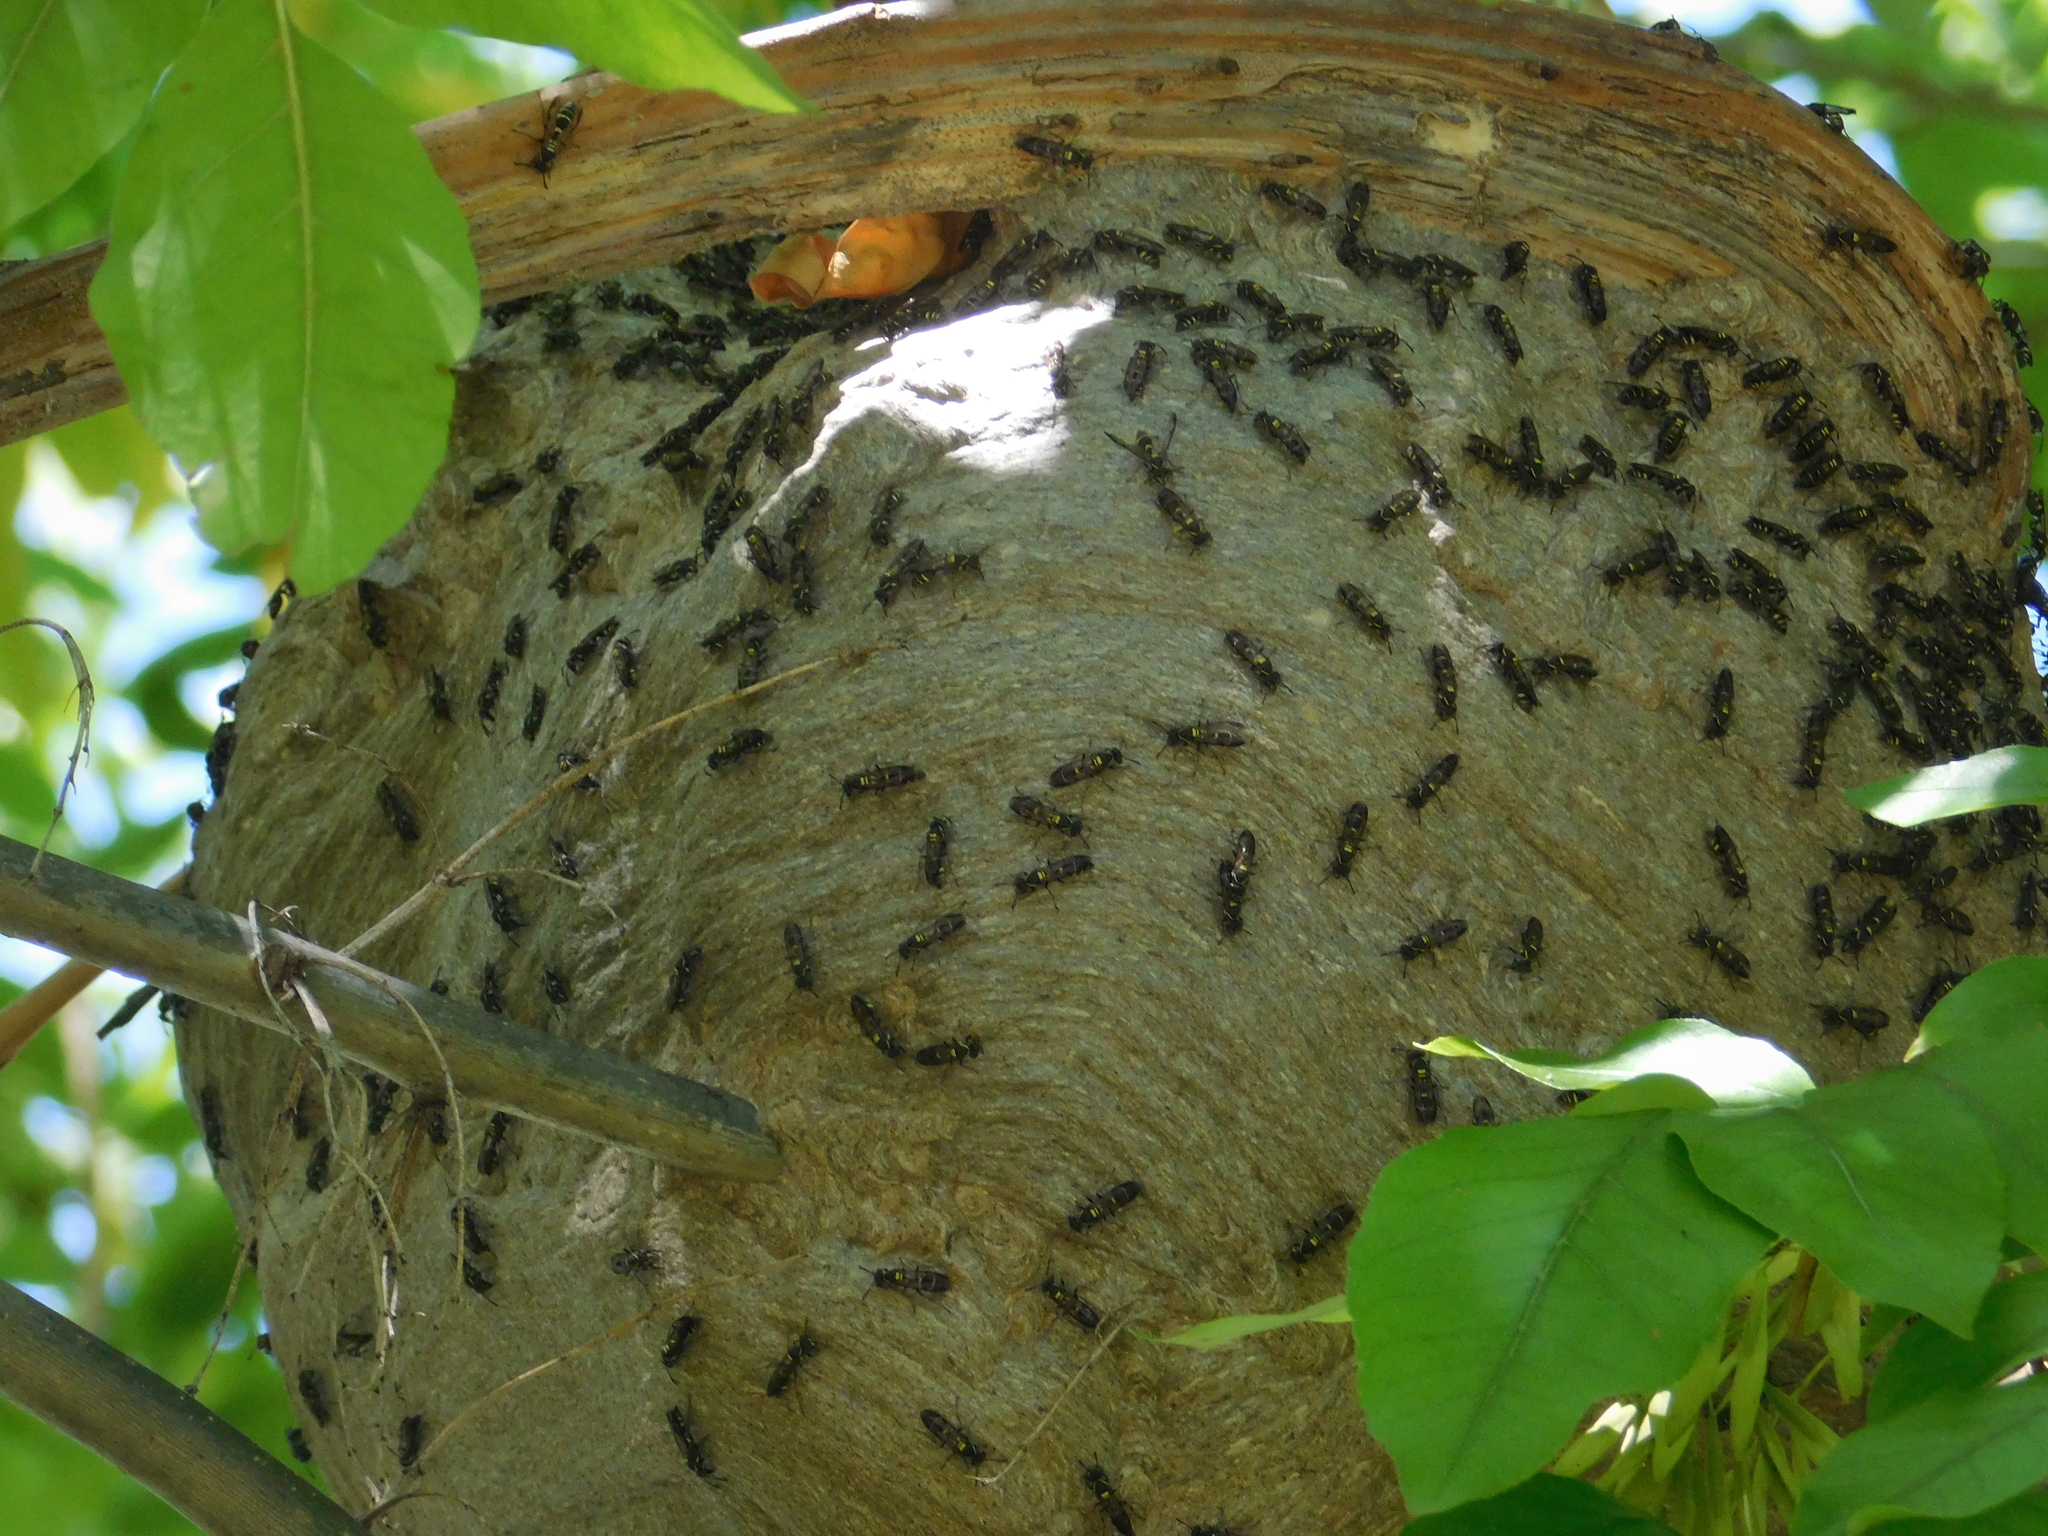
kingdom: Animalia
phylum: Arthropoda
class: Insecta
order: Hymenoptera
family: Eumenidae
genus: Polybia
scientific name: Polybia occidentalis
